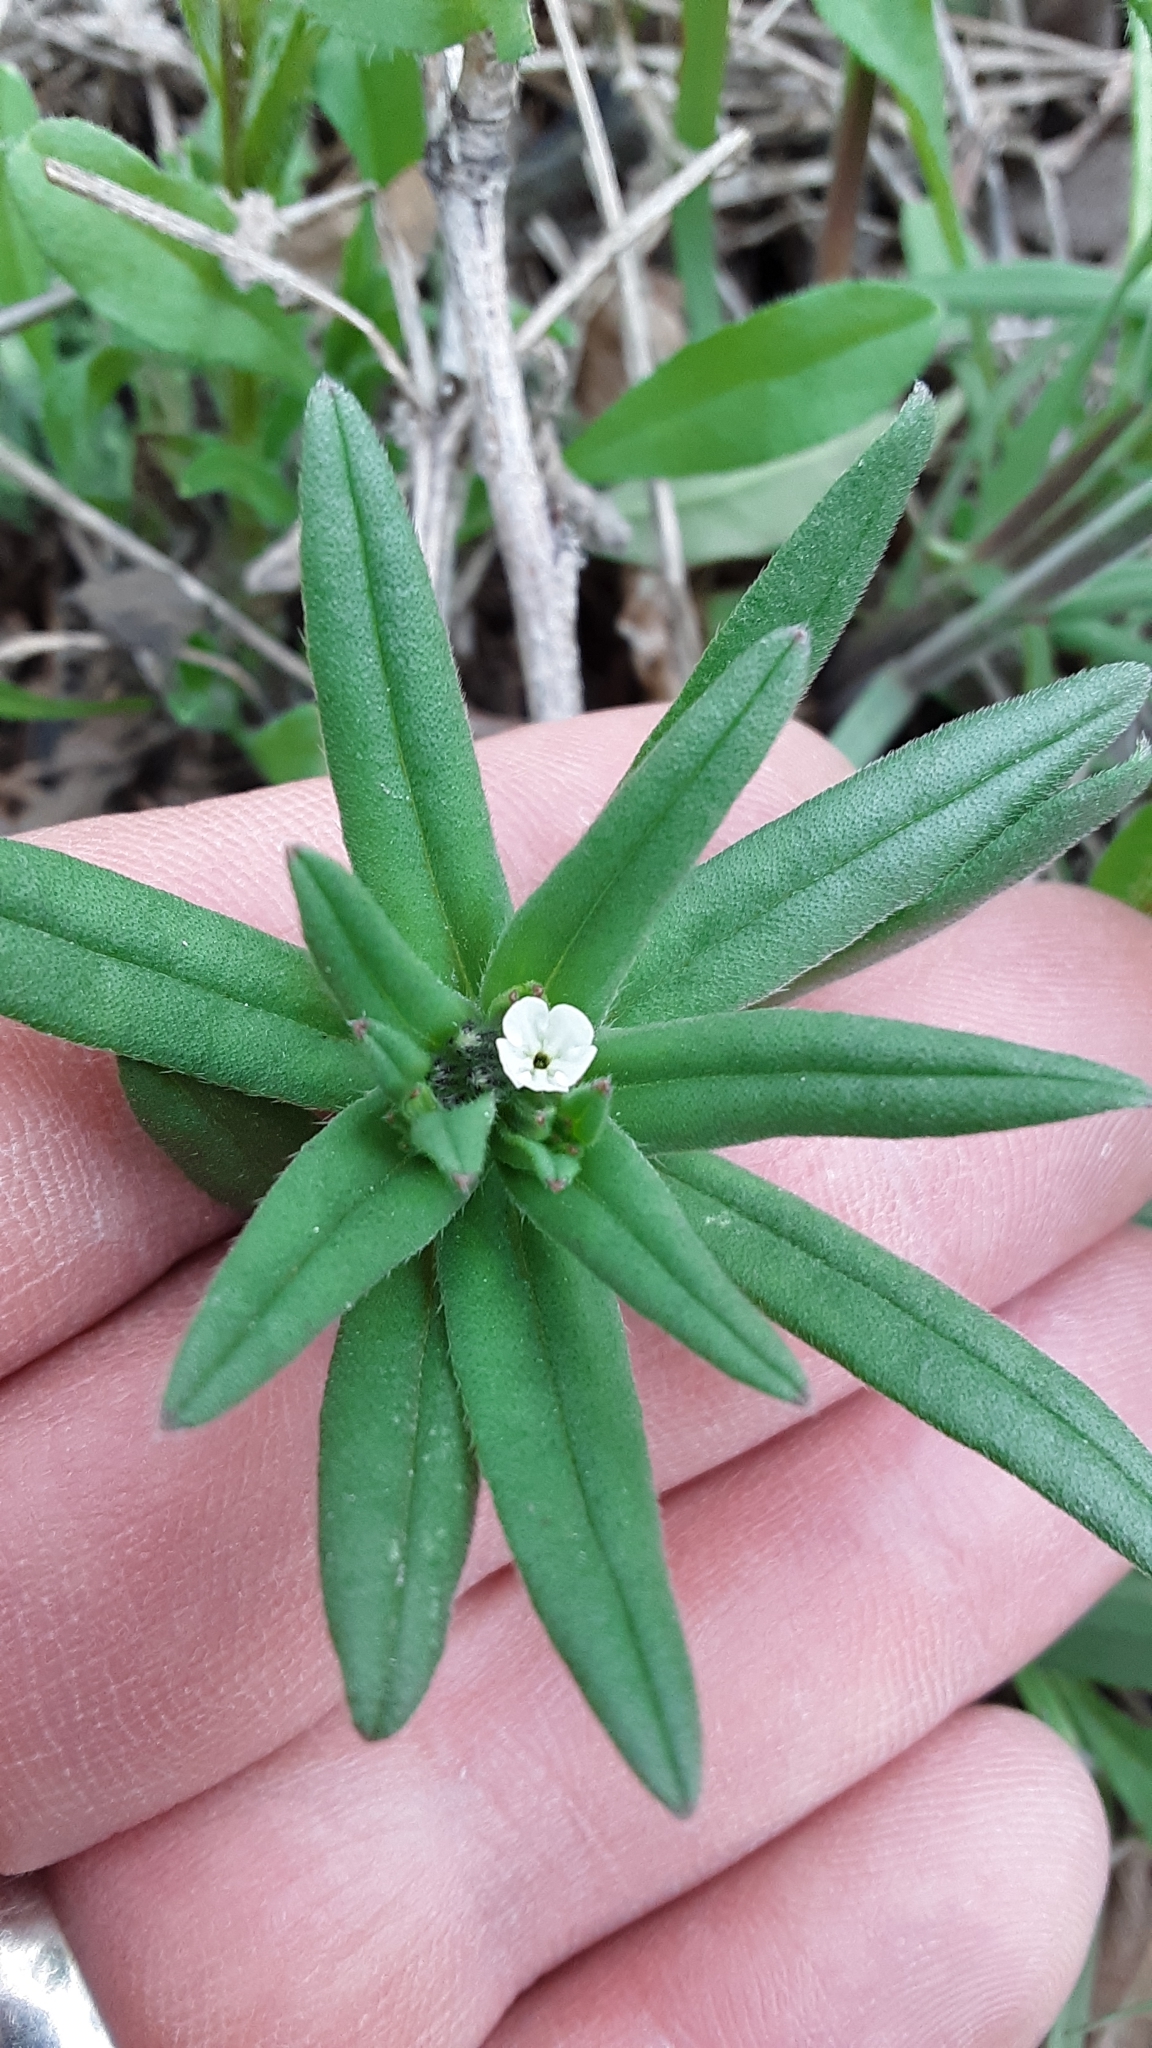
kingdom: Plantae
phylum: Tracheophyta
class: Magnoliopsida
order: Boraginales
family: Boraginaceae
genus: Buglossoides
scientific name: Buglossoides arvensis
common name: Corn gromwell
